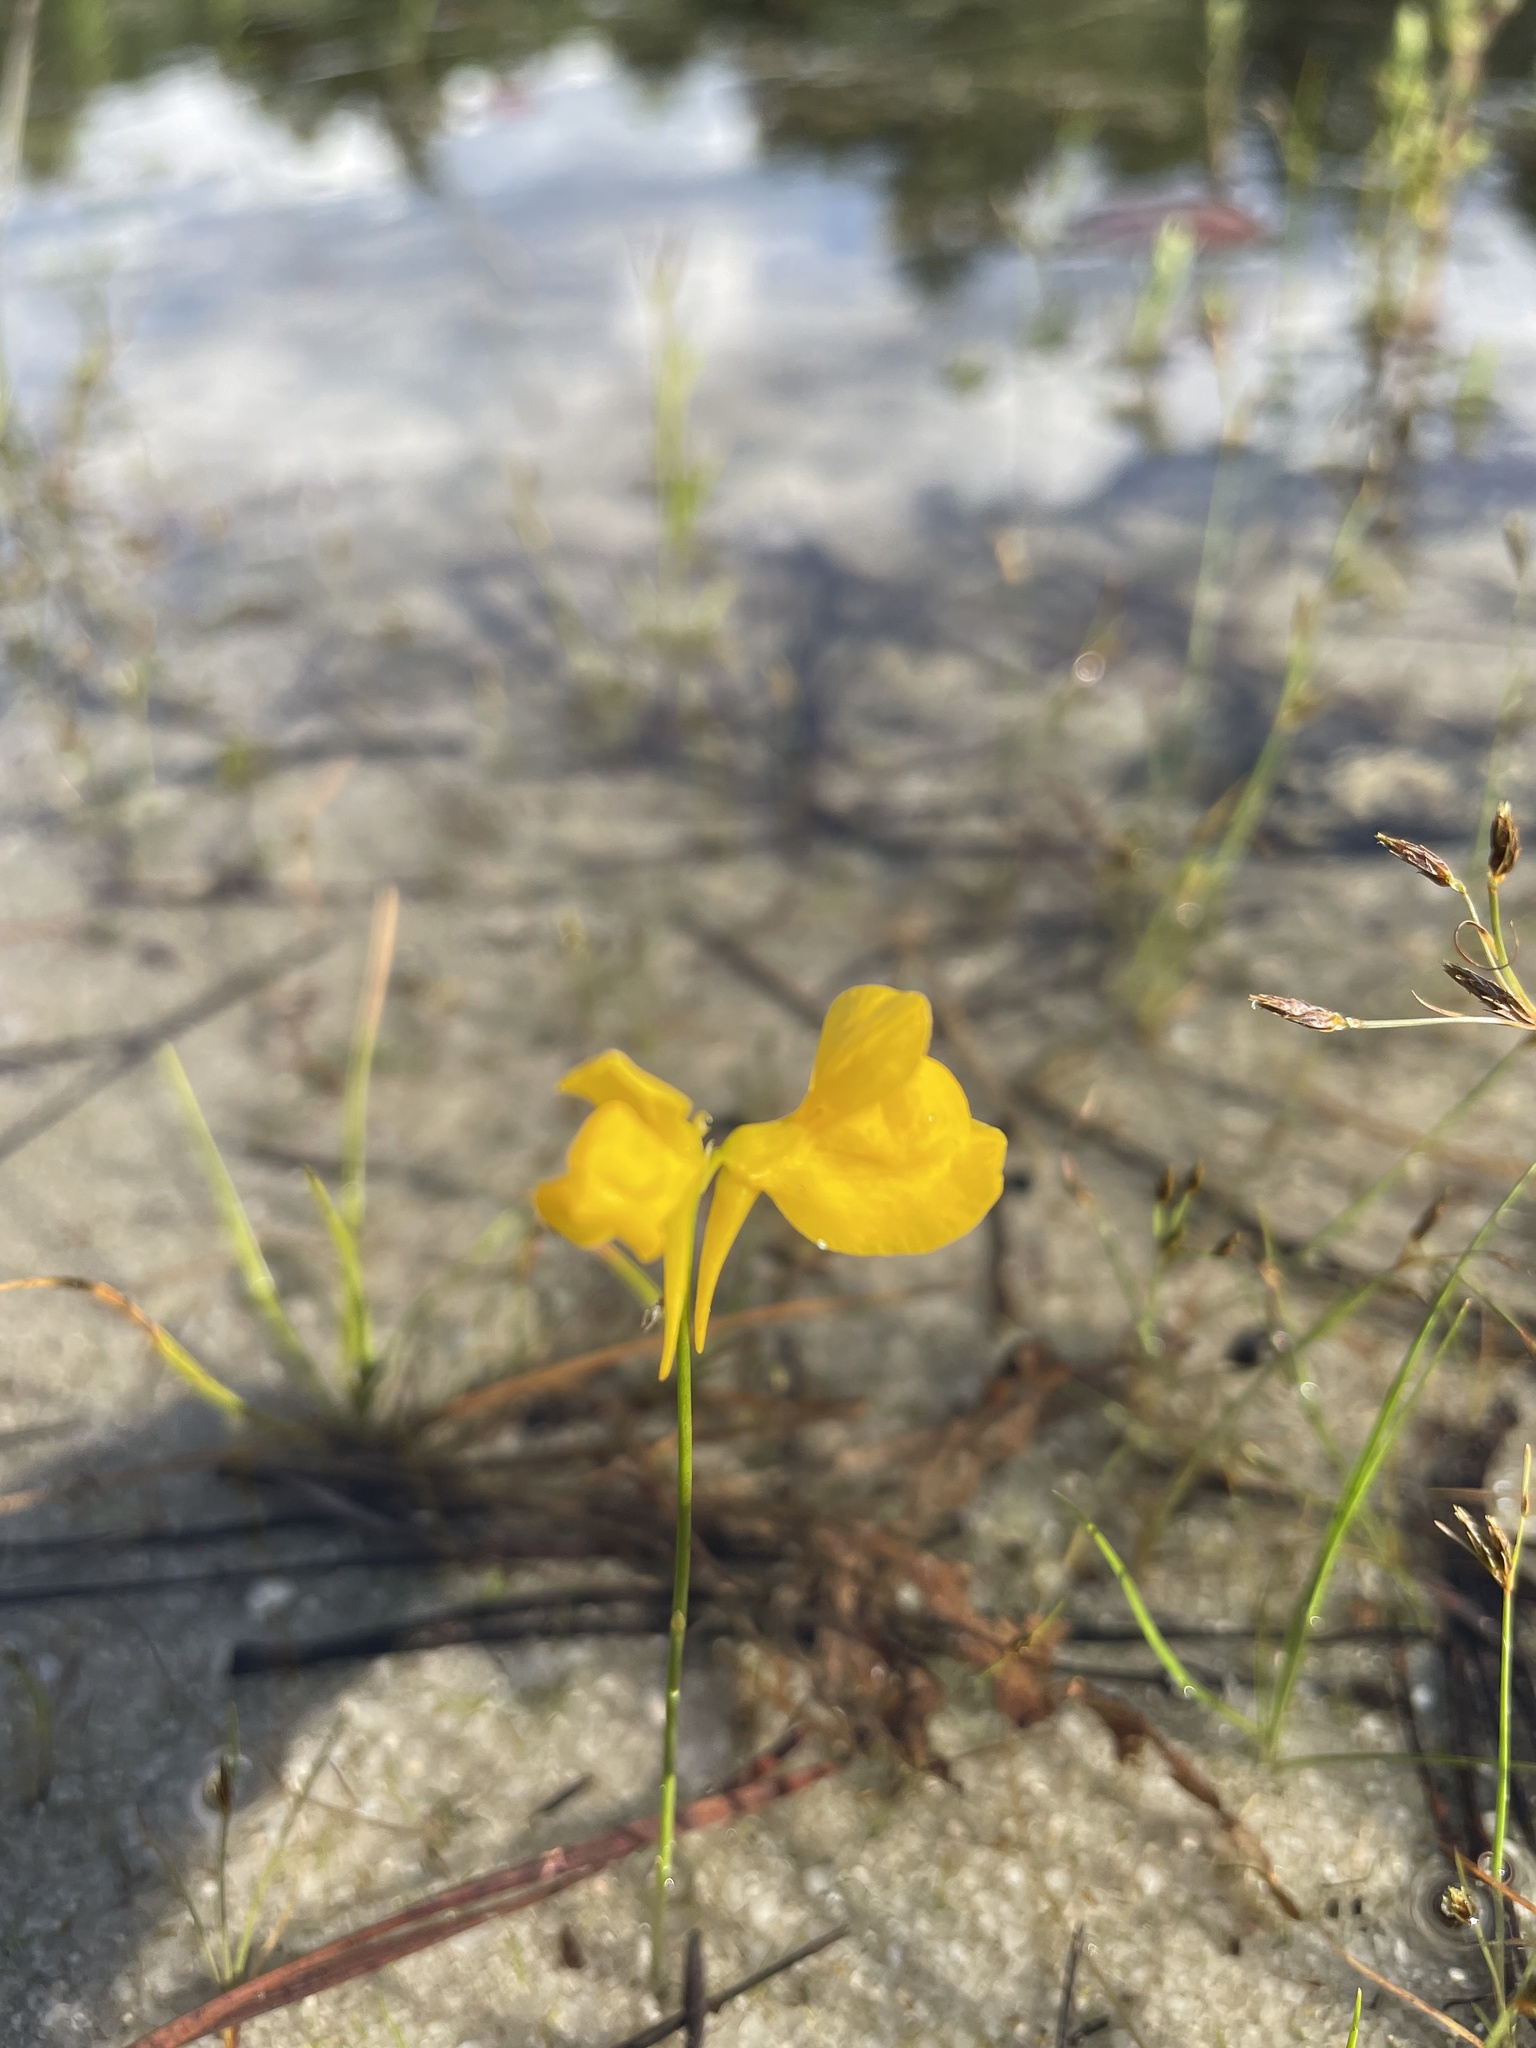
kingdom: Plantae
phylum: Tracheophyta
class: Magnoliopsida
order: Lamiales
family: Lentibulariaceae
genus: Utricularia
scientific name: Utricularia cornuta
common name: Horned bladderwort
